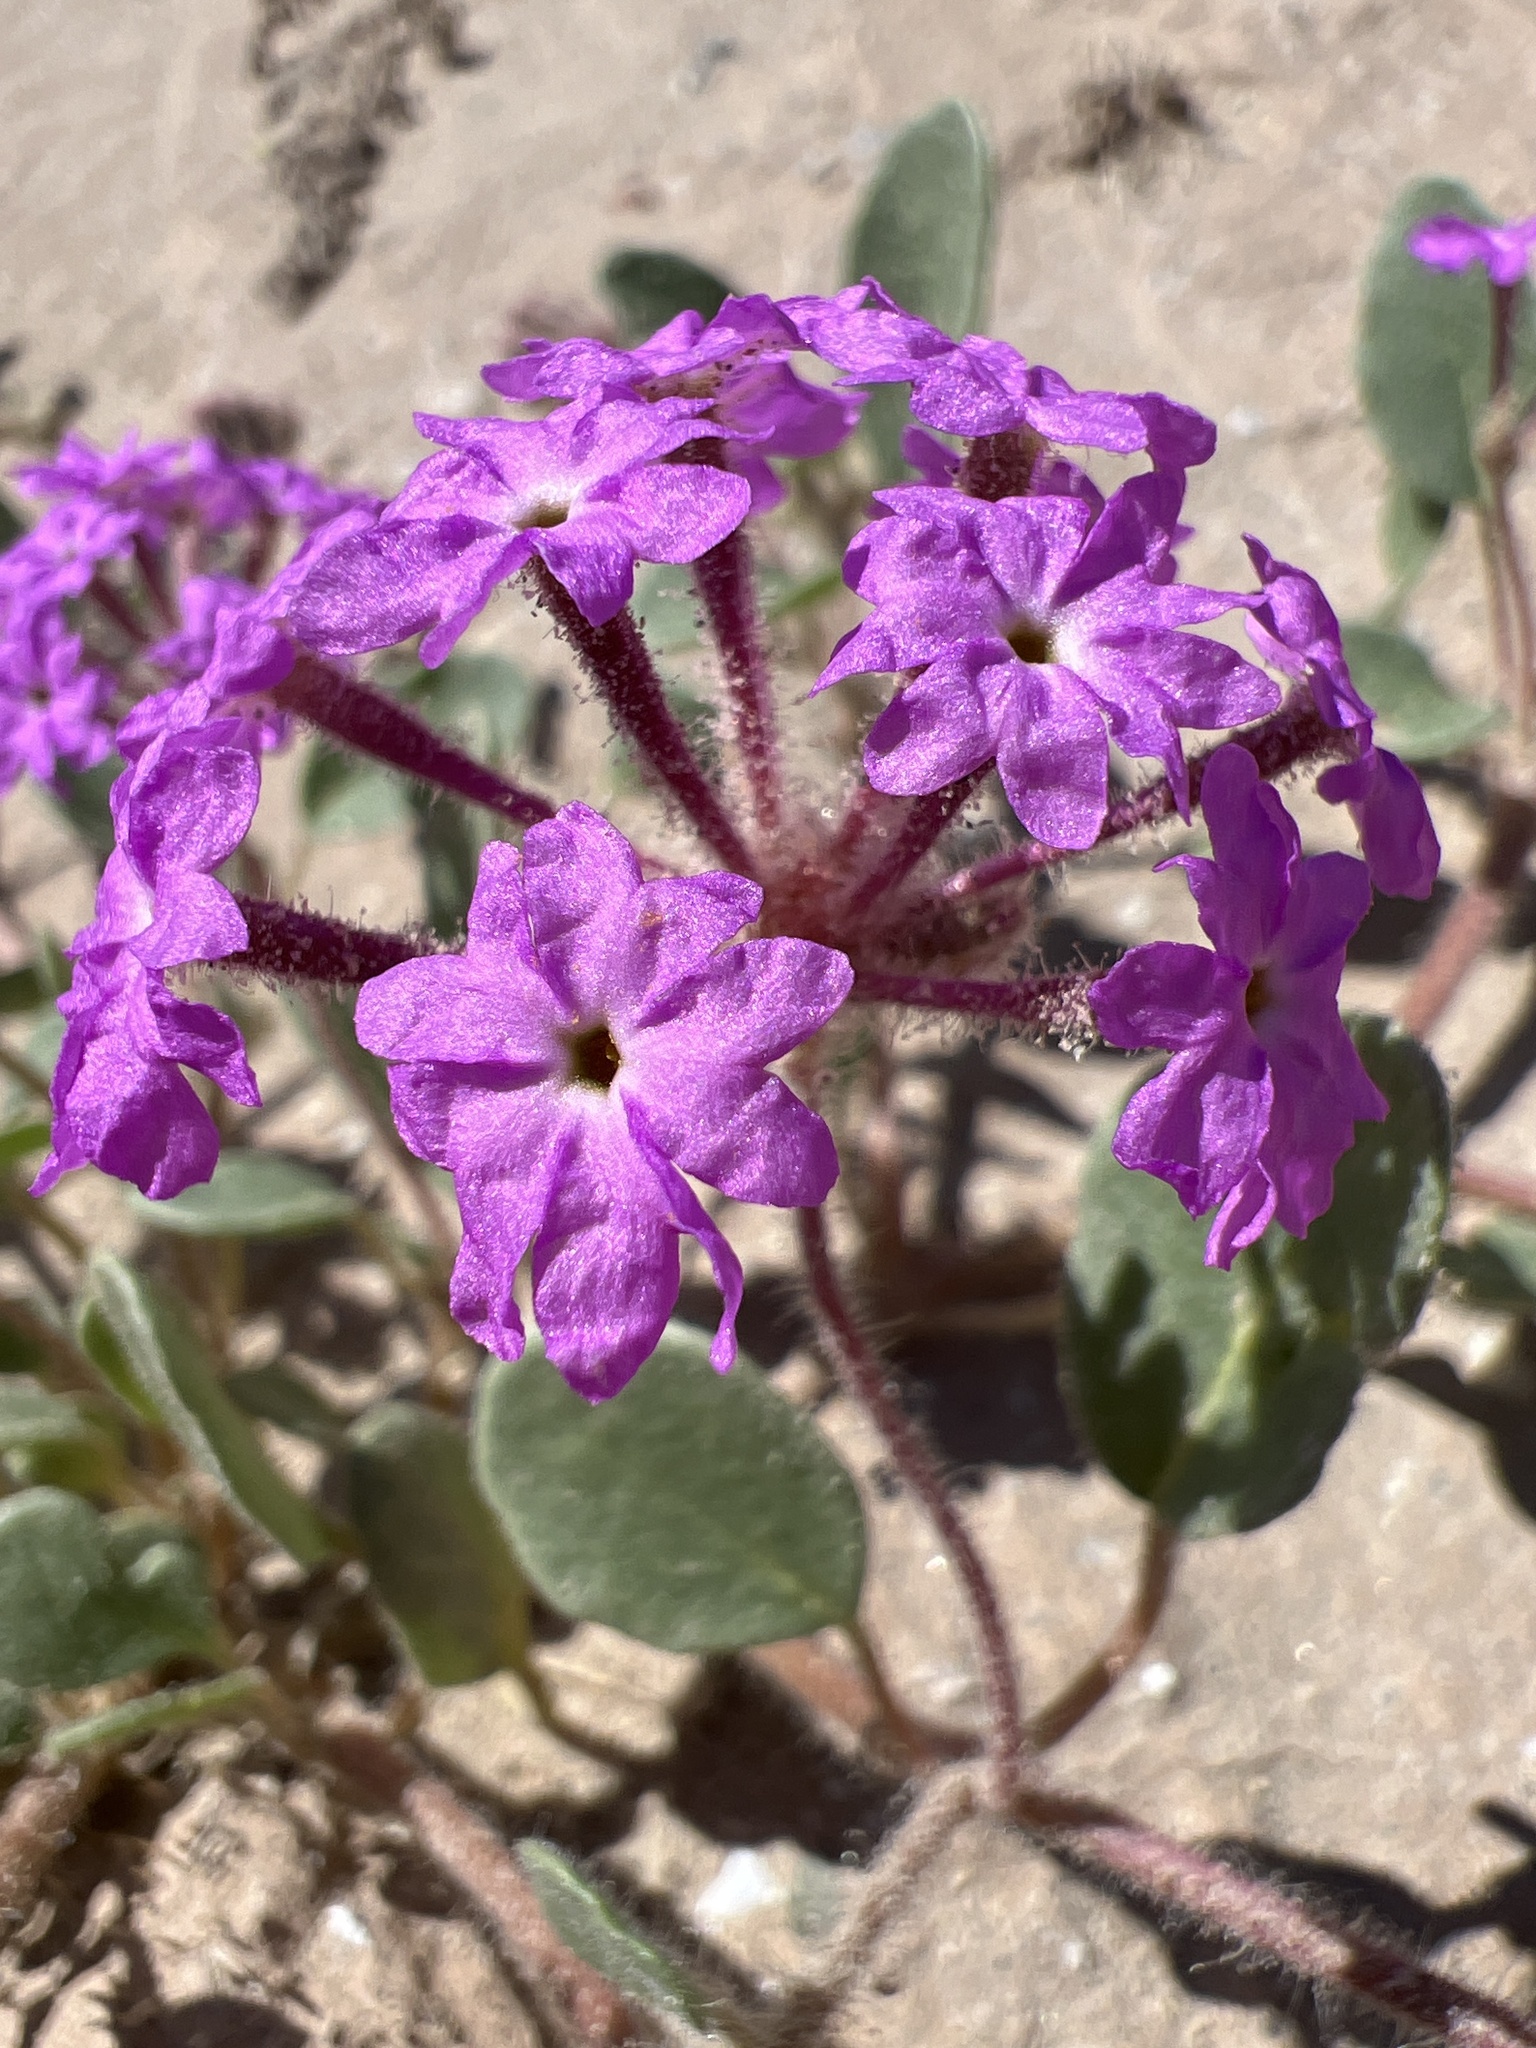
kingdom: Plantae
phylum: Tracheophyta
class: Magnoliopsida
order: Caryophyllales
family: Nyctaginaceae
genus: Abronia
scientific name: Abronia villosa
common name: Desert sand-verbena
